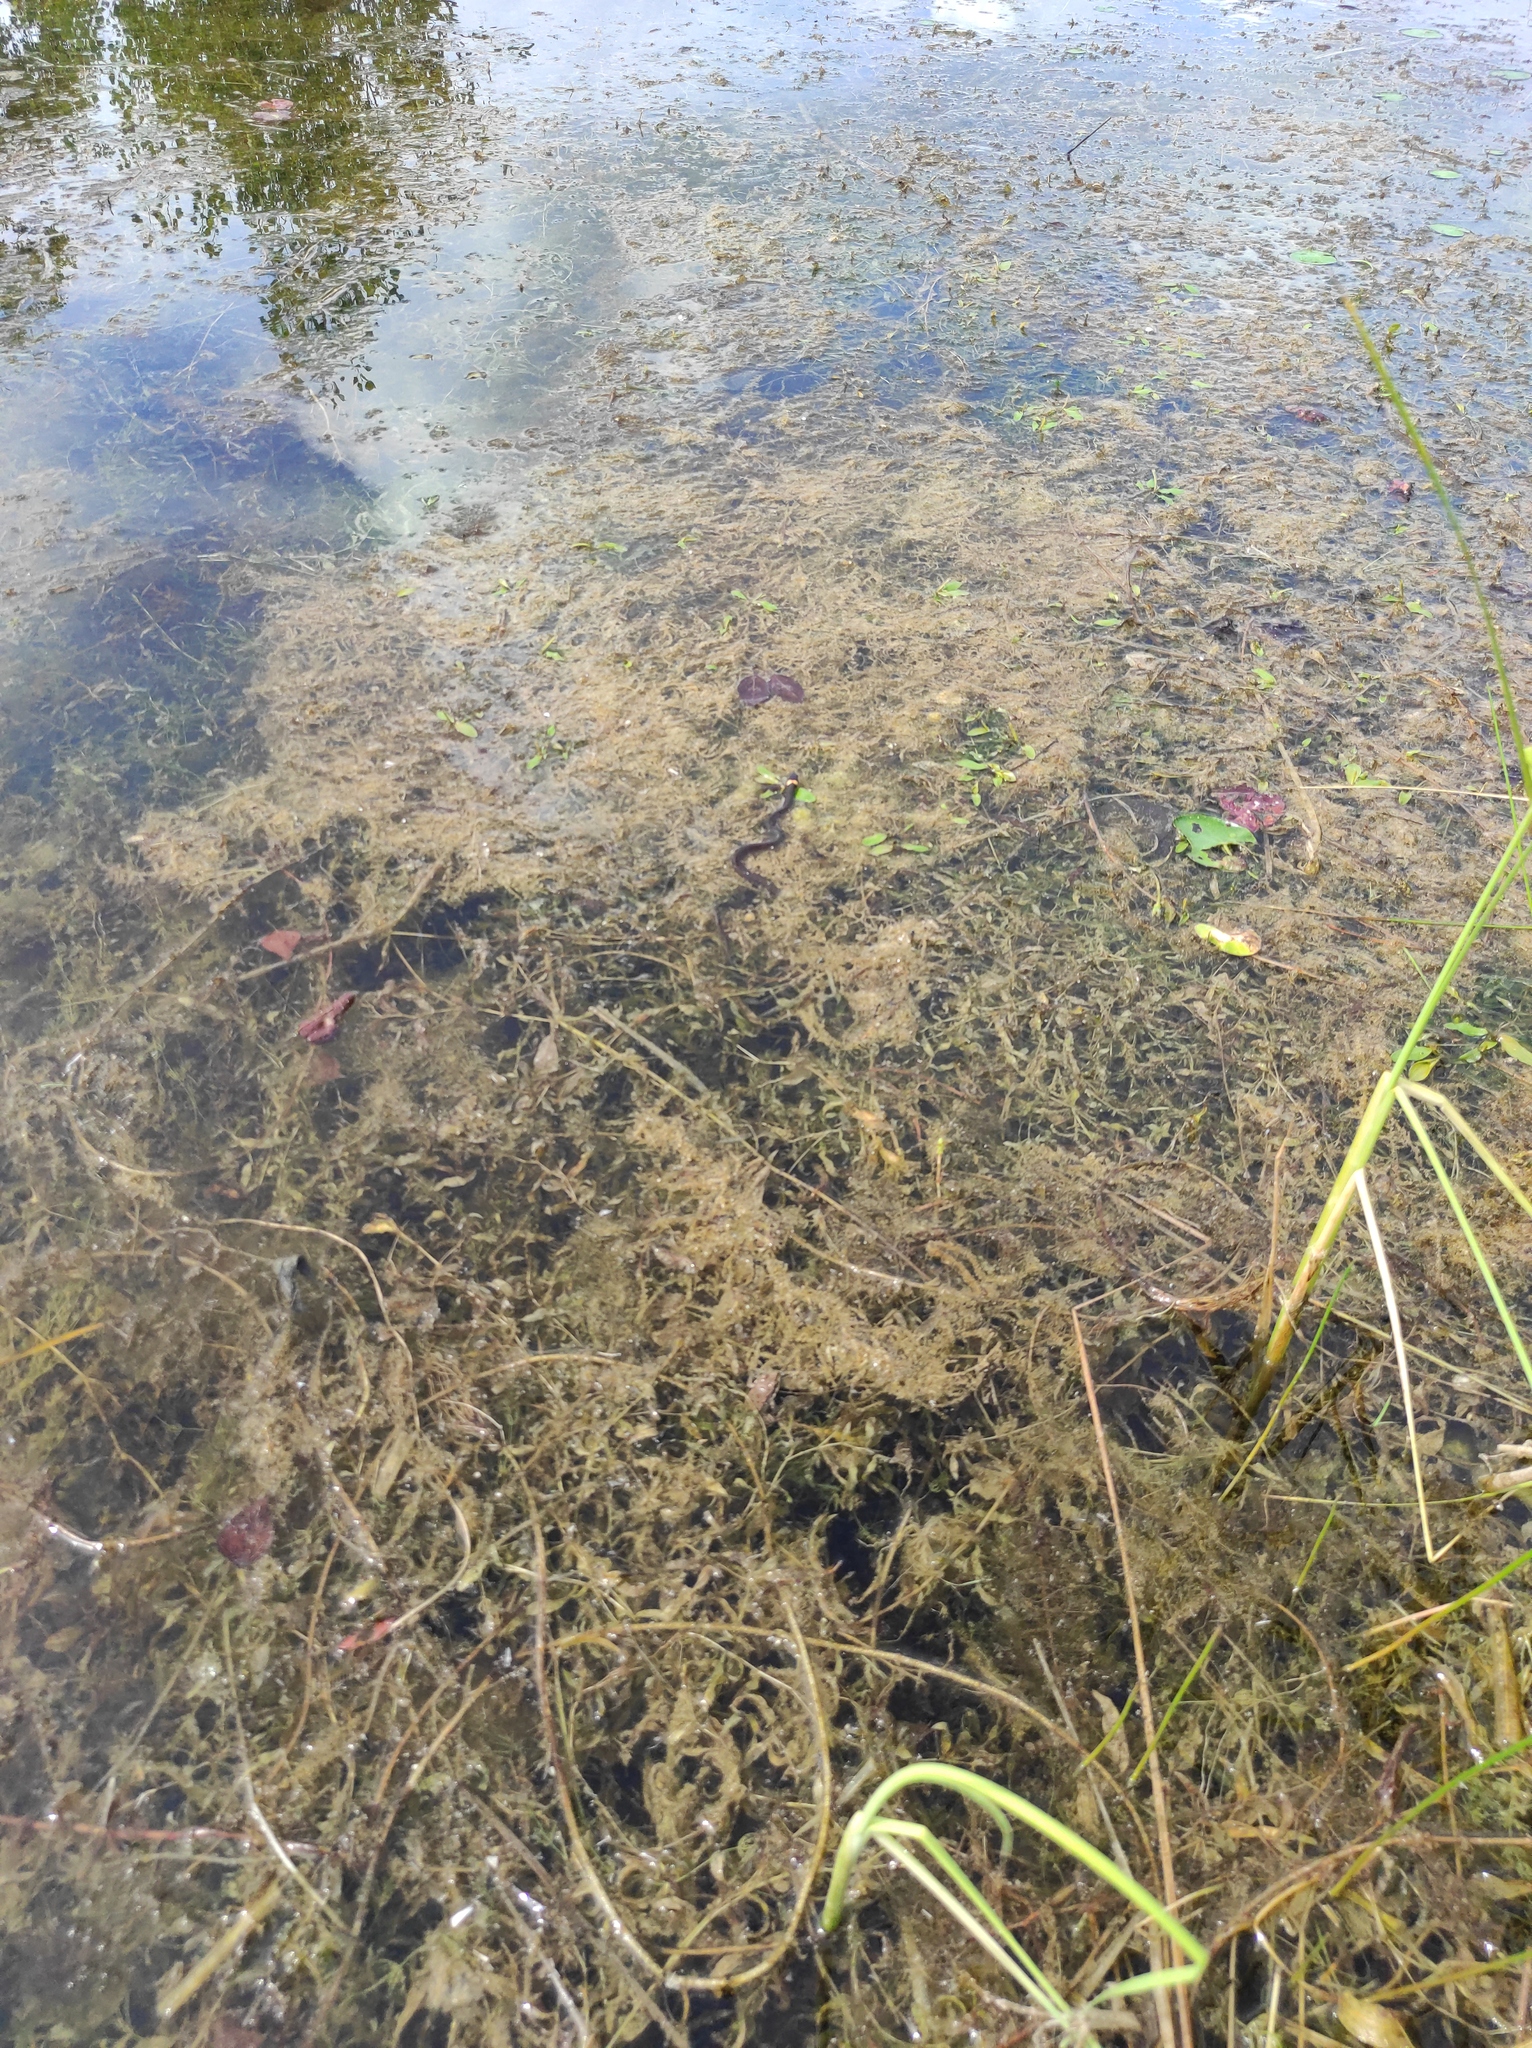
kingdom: Animalia
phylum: Chordata
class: Squamata
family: Colubridae
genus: Natrix
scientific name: Natrix natrix
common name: Grass snake
